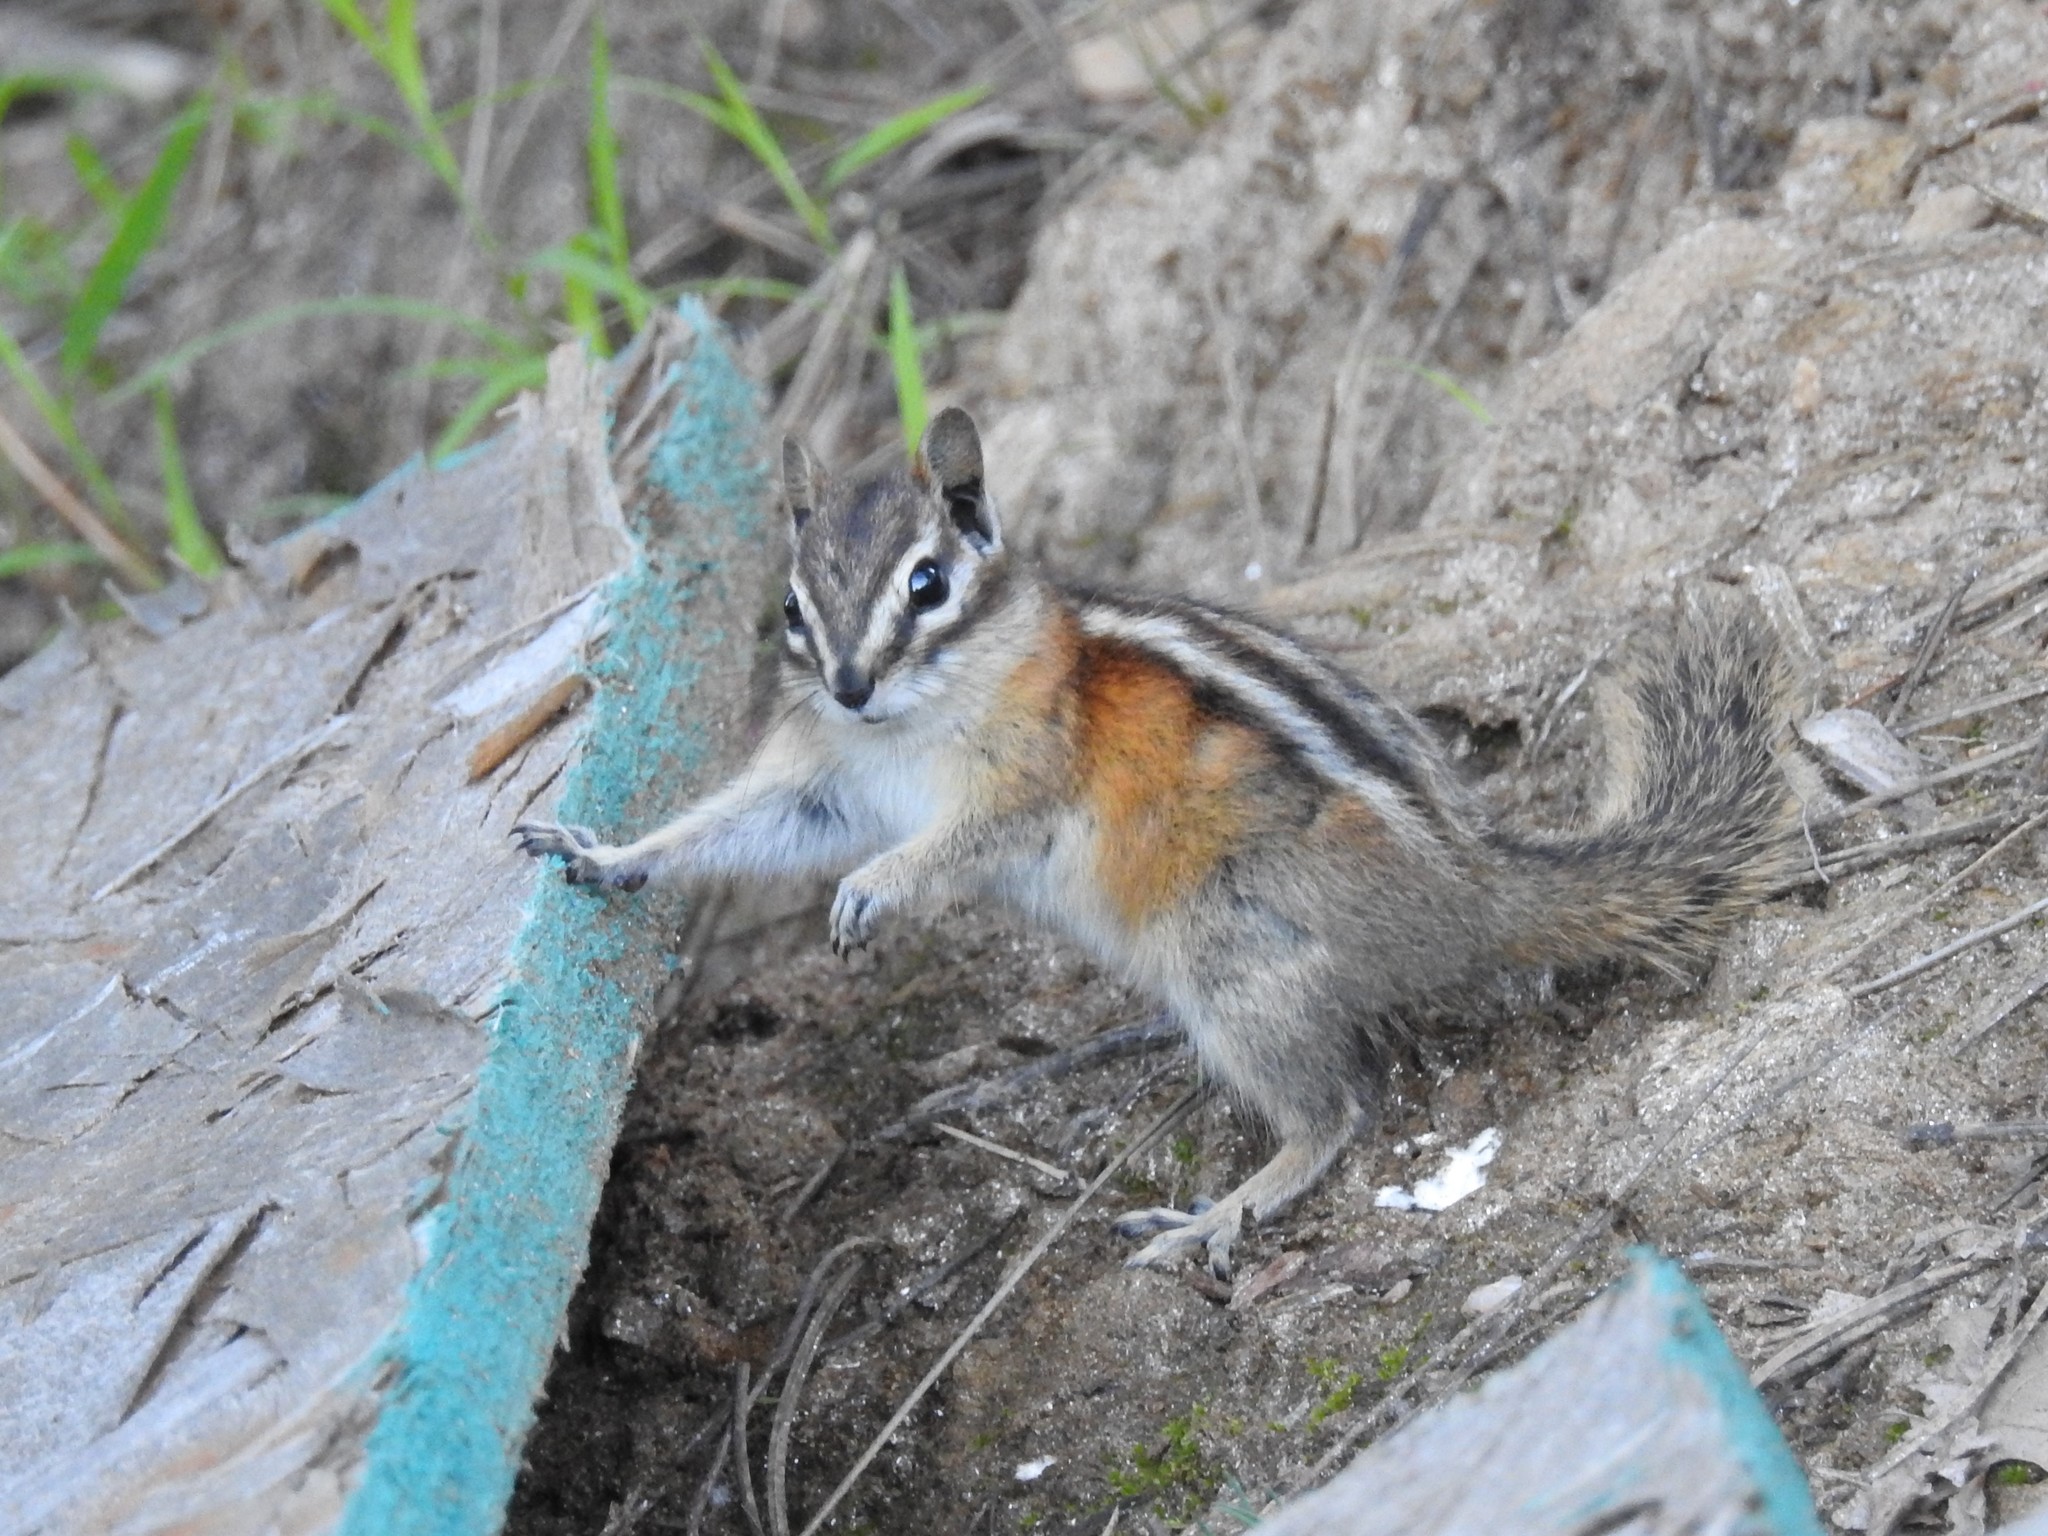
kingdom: Animalia
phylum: Chordata
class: Mammalia
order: Rodentia
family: Sciuridae
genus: Tamias
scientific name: Tamias minimus
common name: Least chipmunk
